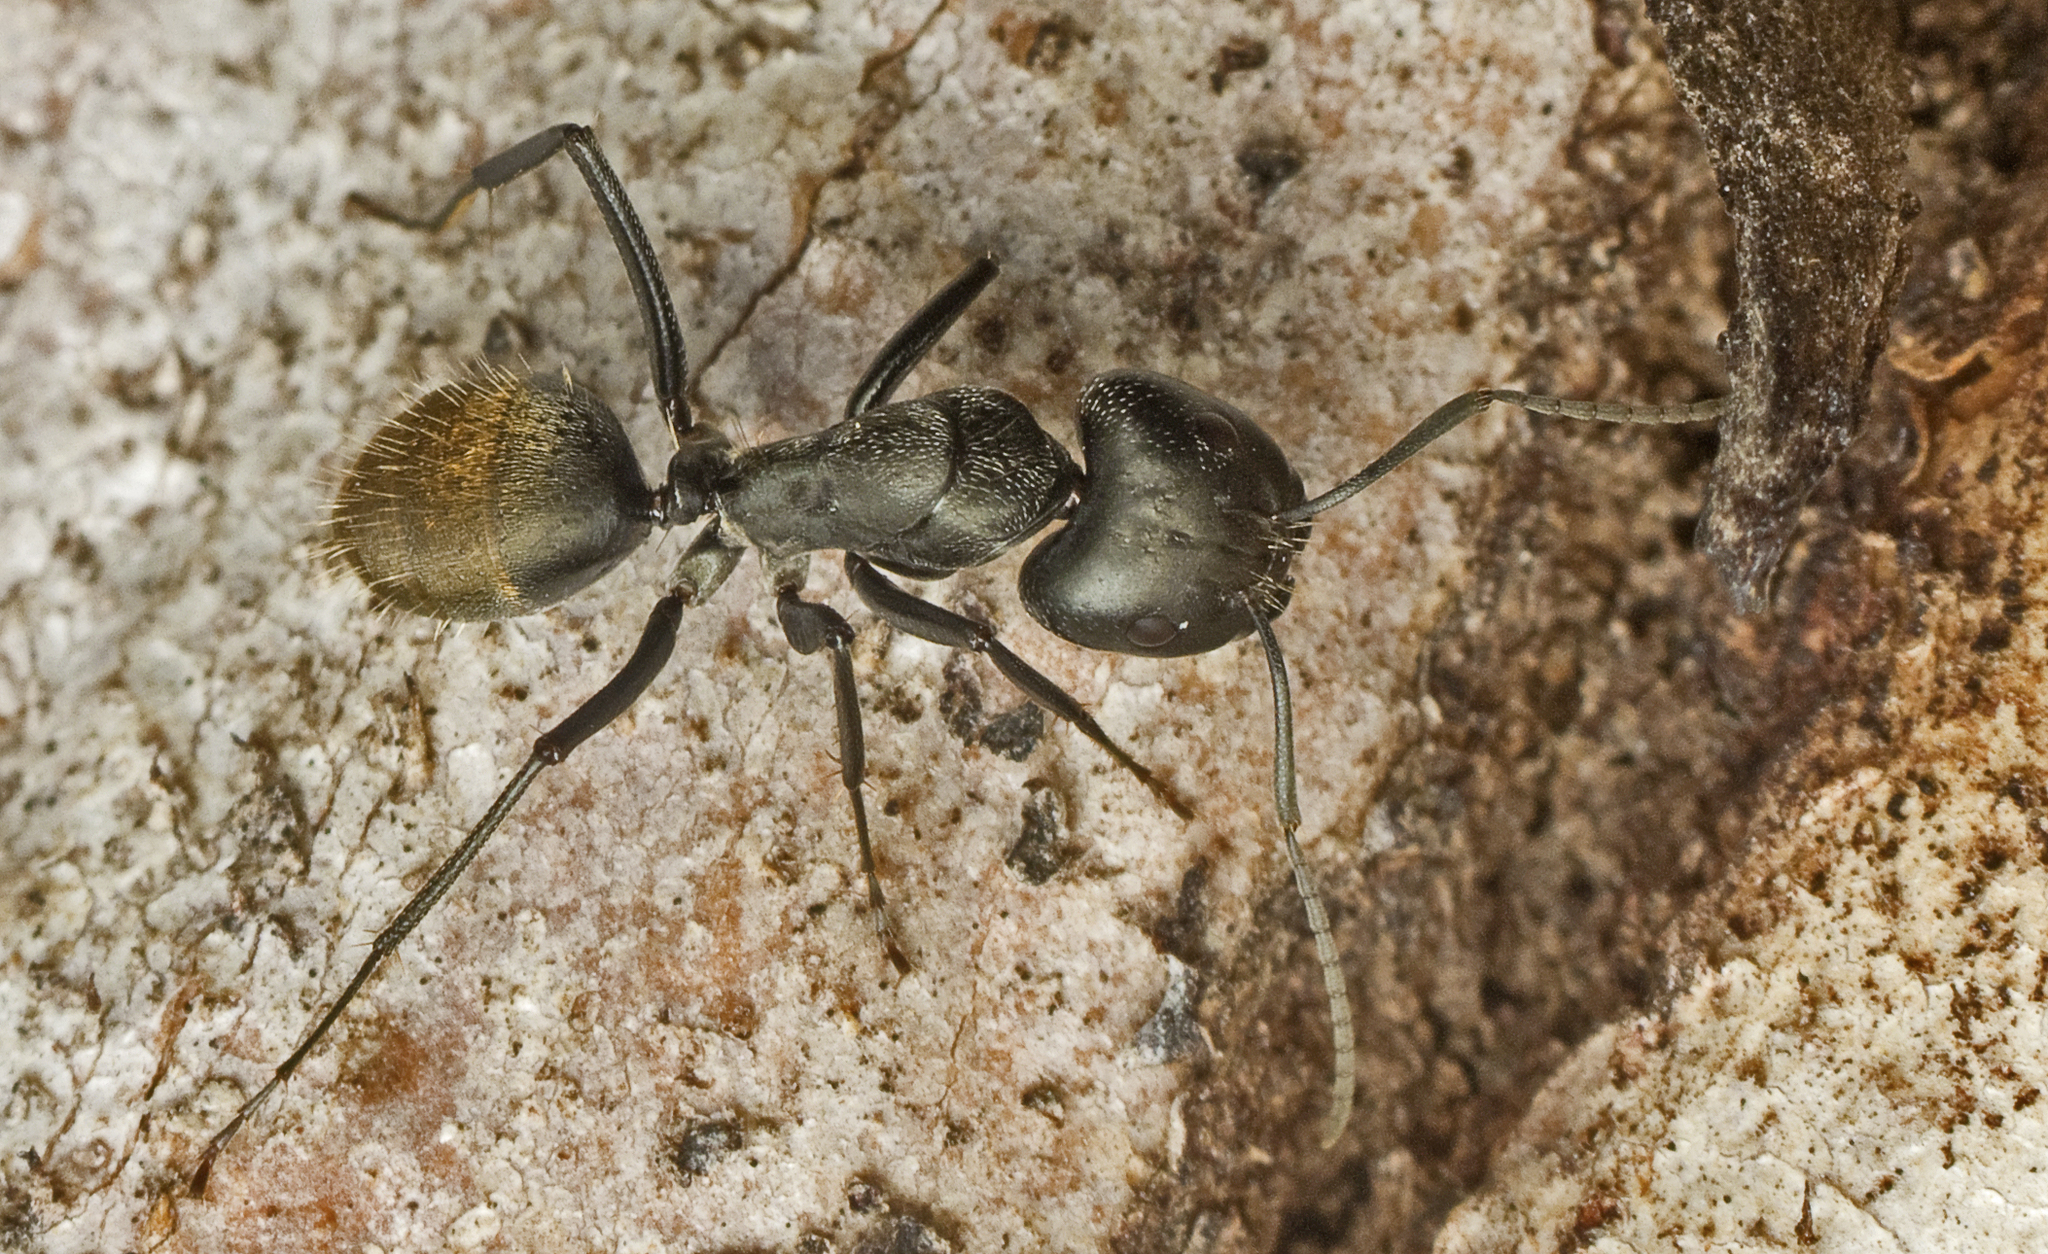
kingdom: Animalia
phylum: Arthropoda
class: Insecta
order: Hymenoptera
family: Formicidae
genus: Camponotus
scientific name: Camponotus aeneopilosus
